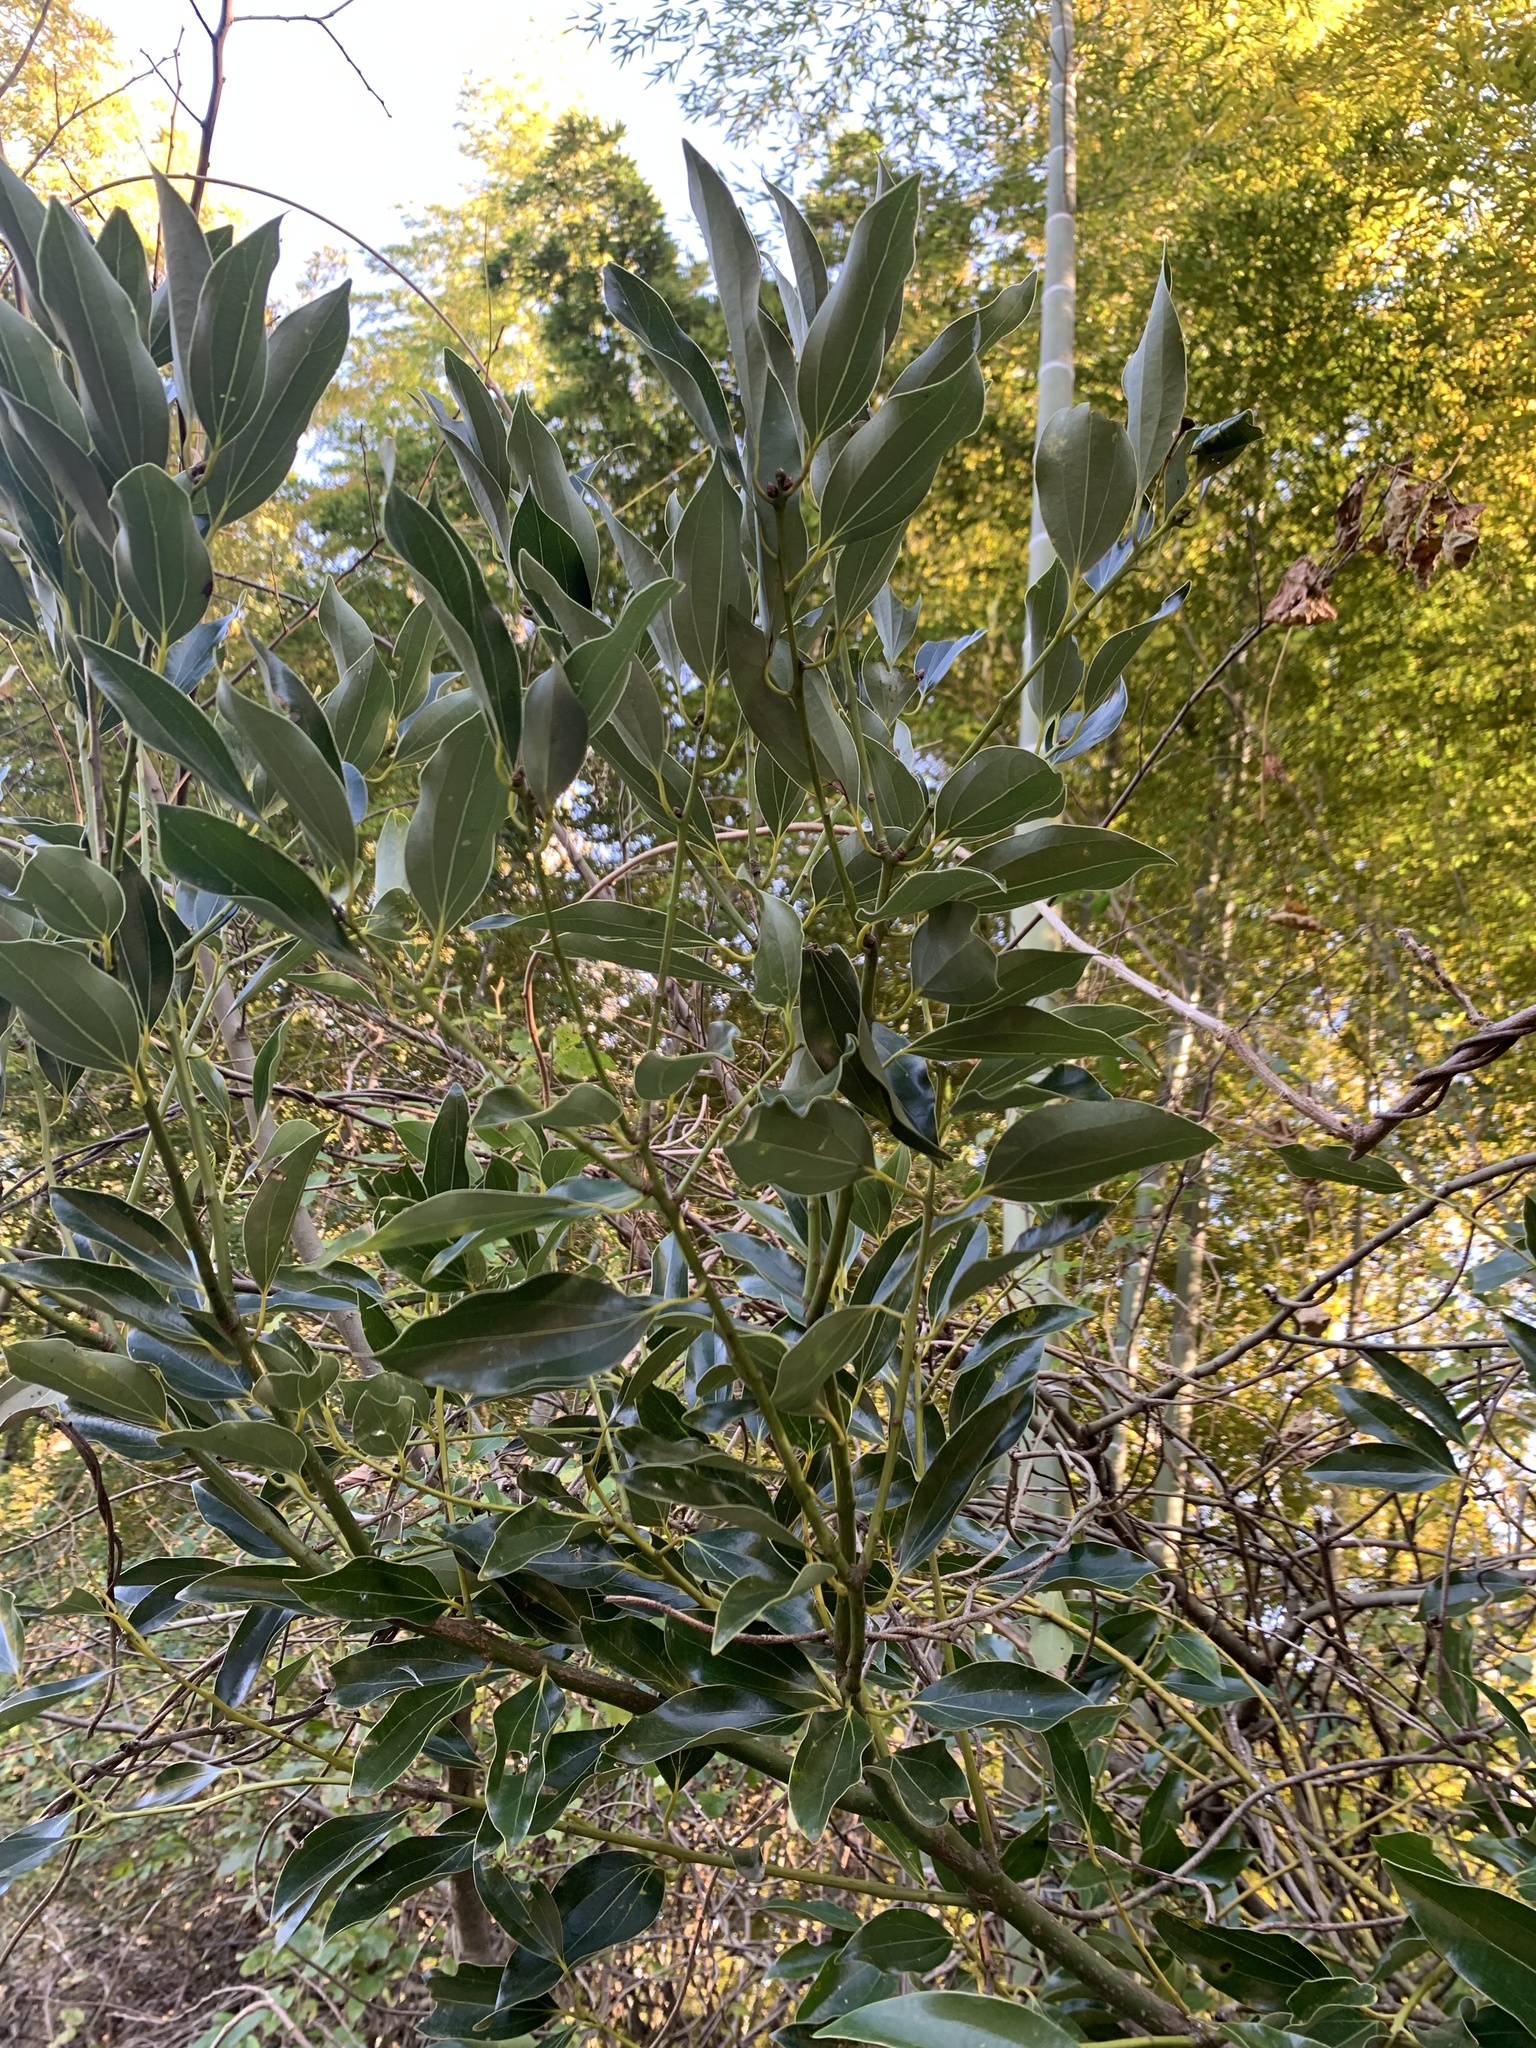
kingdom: Plantae
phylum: Tracheophyta
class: Magnoliopsida
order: Laurales
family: Lauraceae
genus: Cinnamomum
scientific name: Cinnamomum chekiangense
